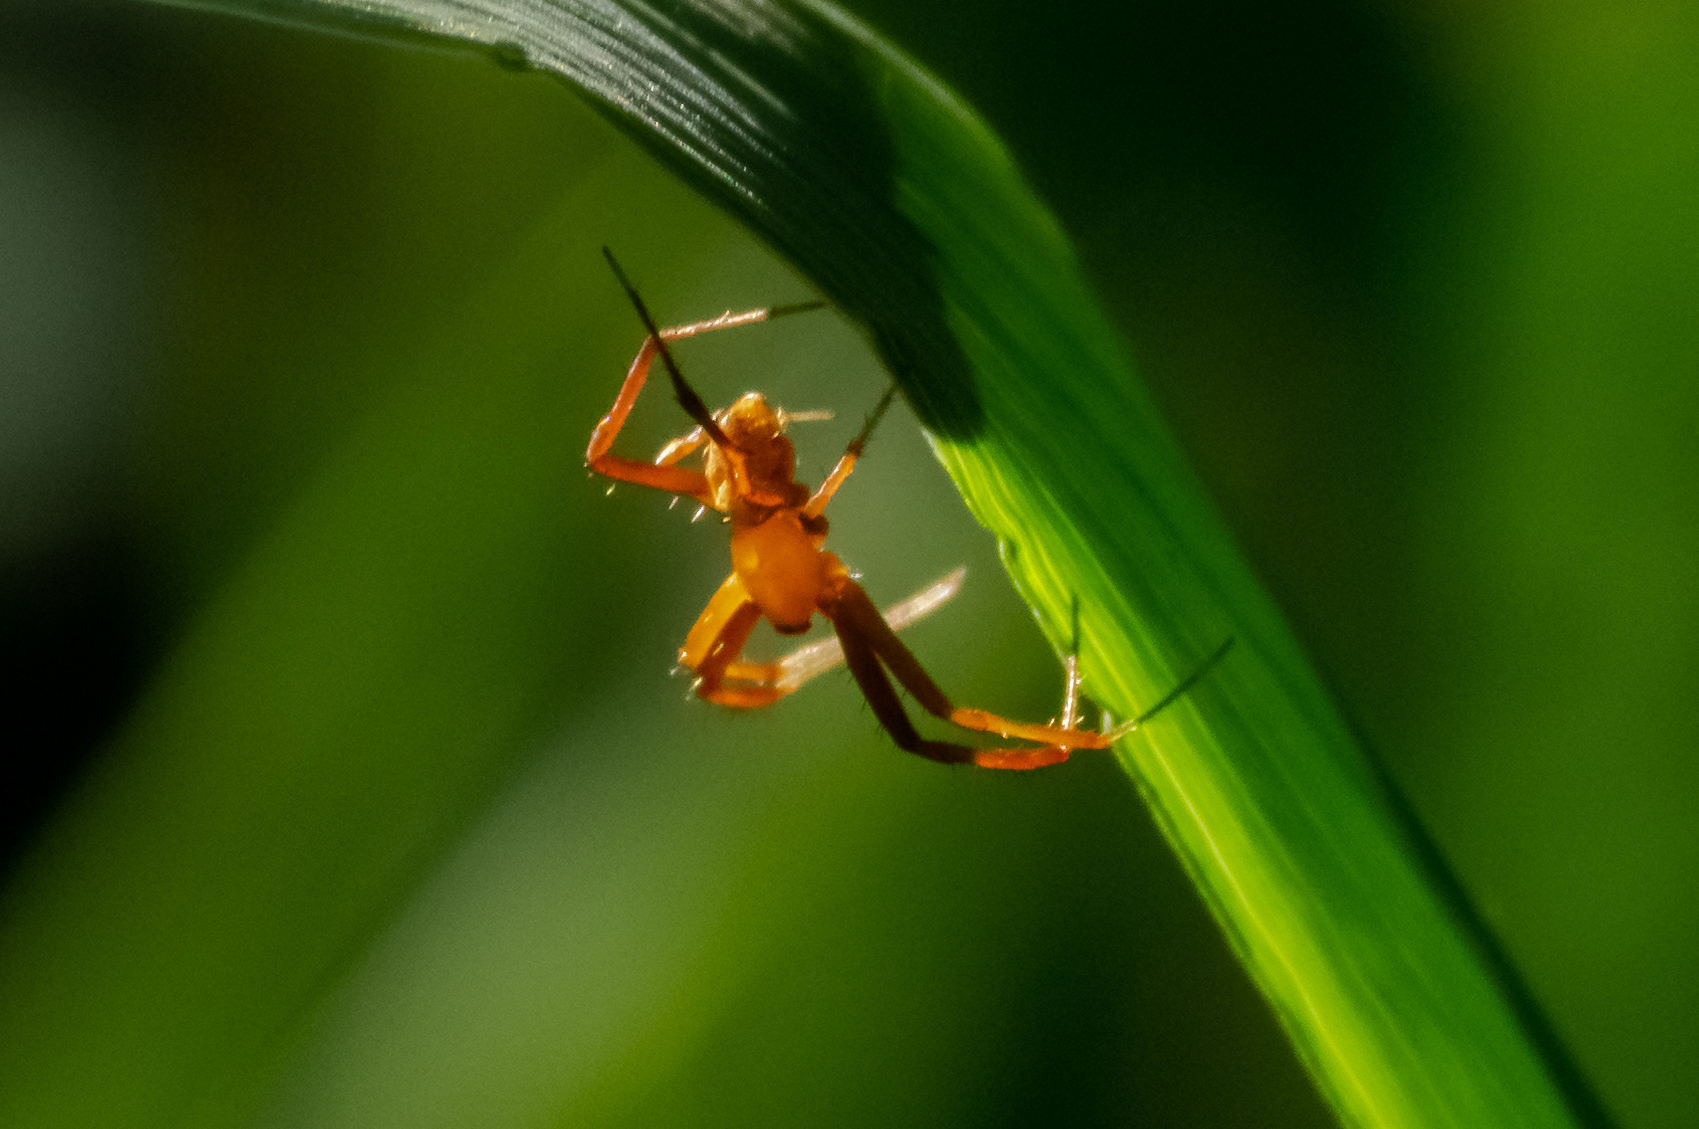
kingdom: Animalia
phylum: Arthropoda
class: Arachnida
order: Araneae
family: Araneidae
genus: Gea
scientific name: Gea heptagon
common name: Orb weavers
